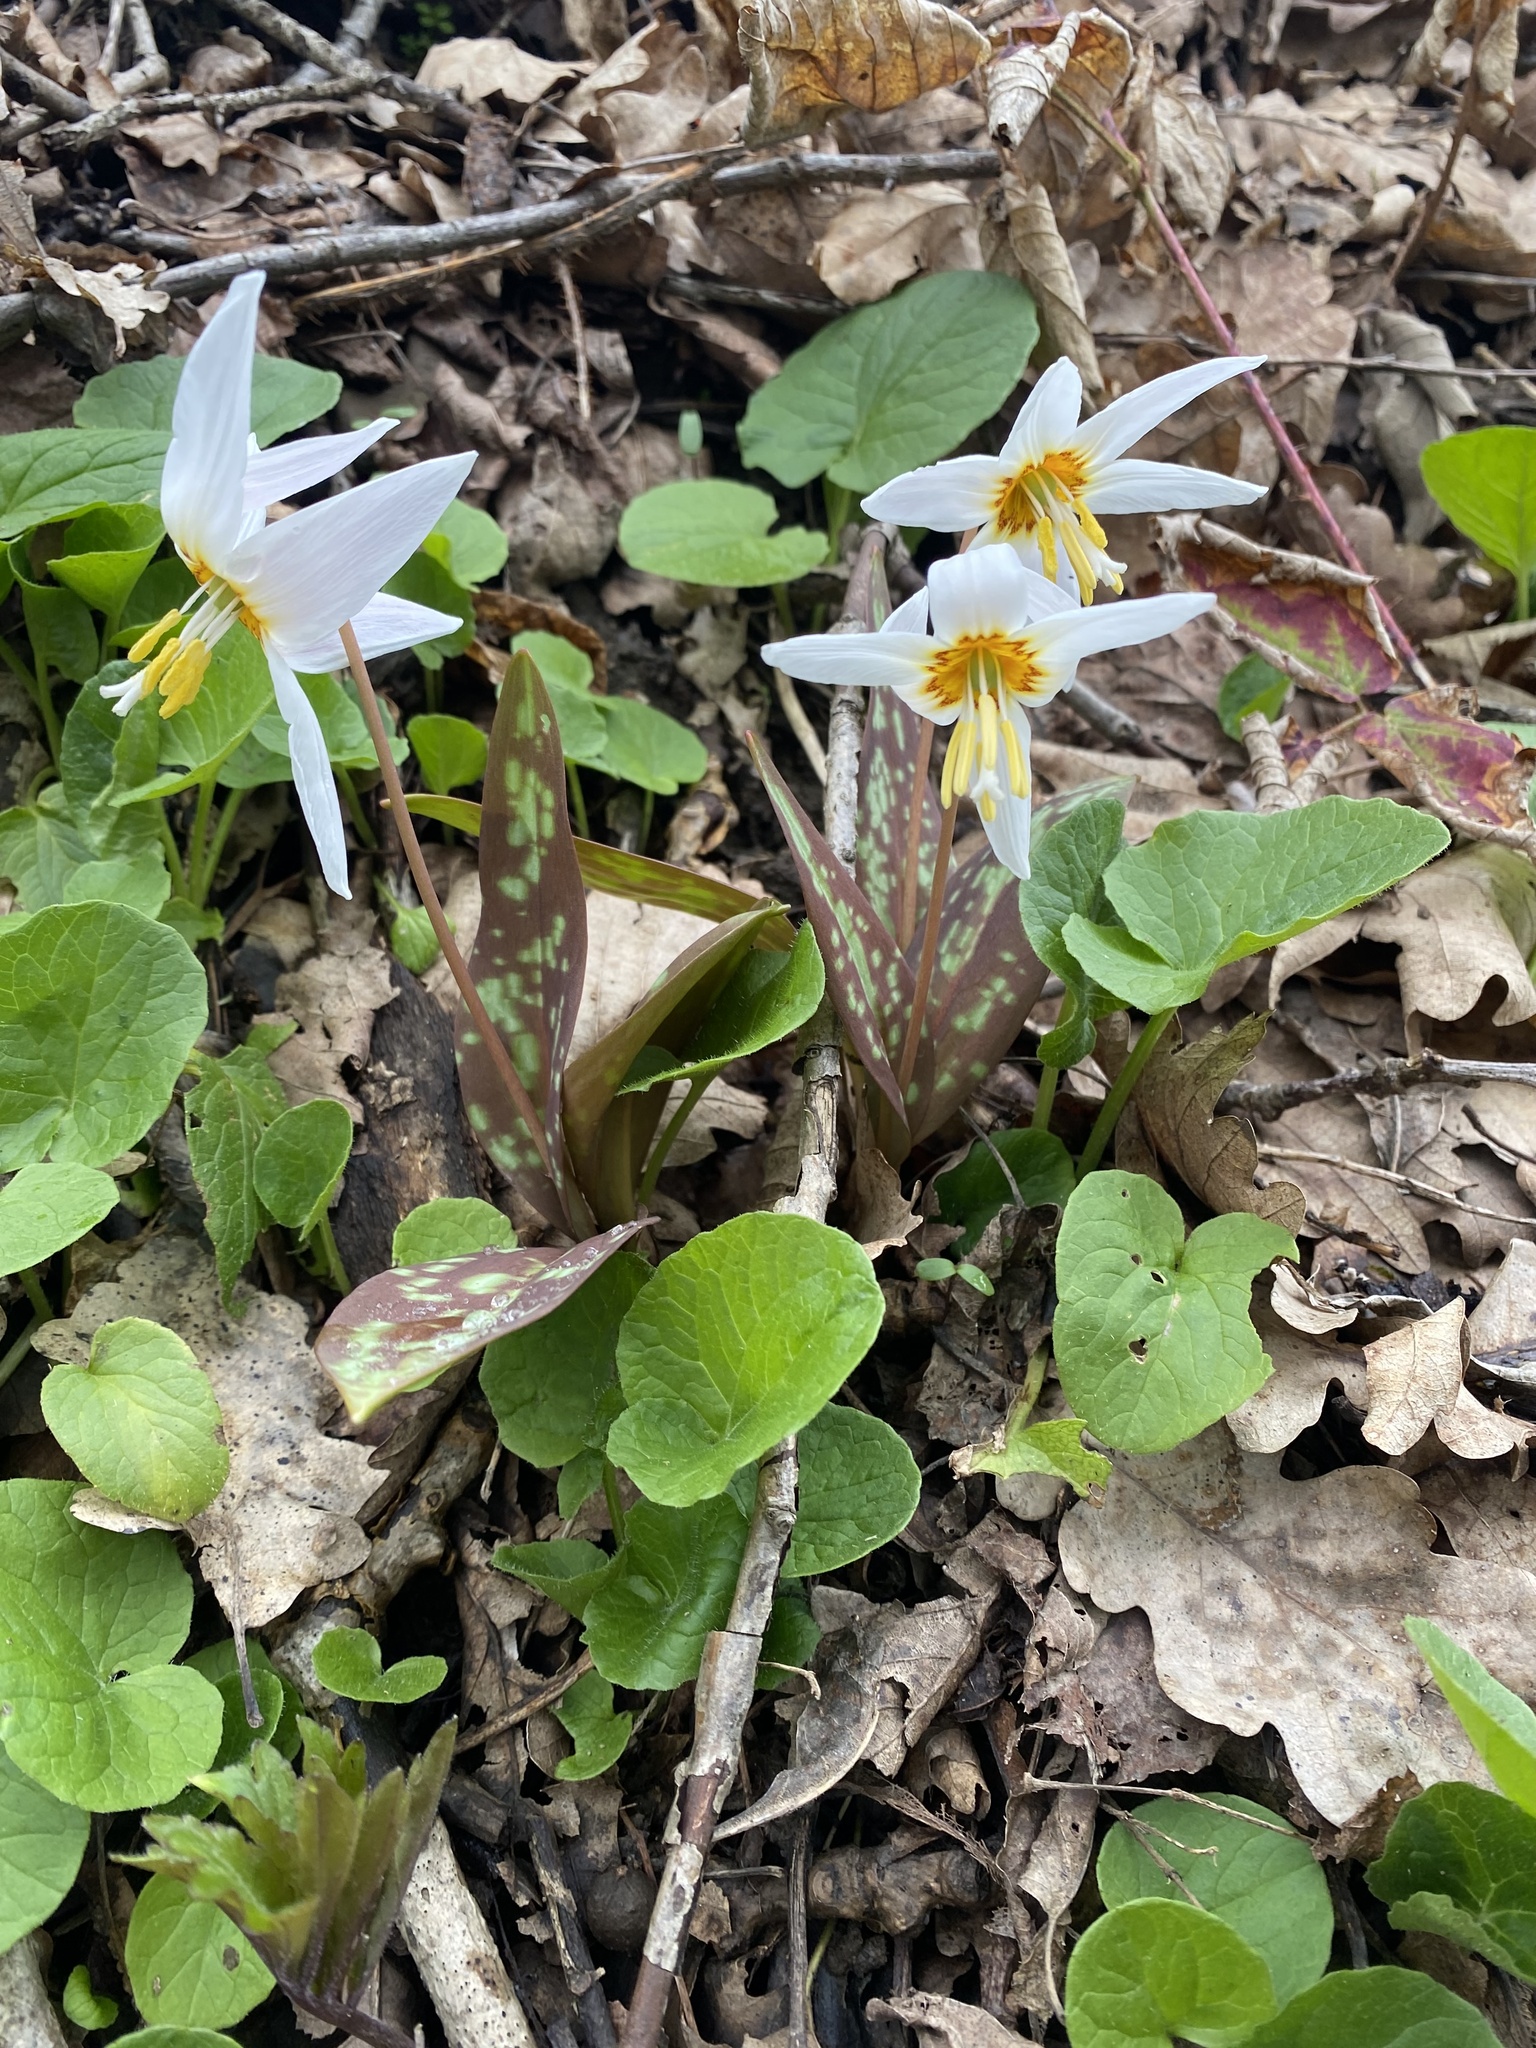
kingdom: Plantae
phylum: Tracheophyta
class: Liliopsida
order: Liliales
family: Liliaceae
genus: Erythronium
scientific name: Erythronium caucasicum
